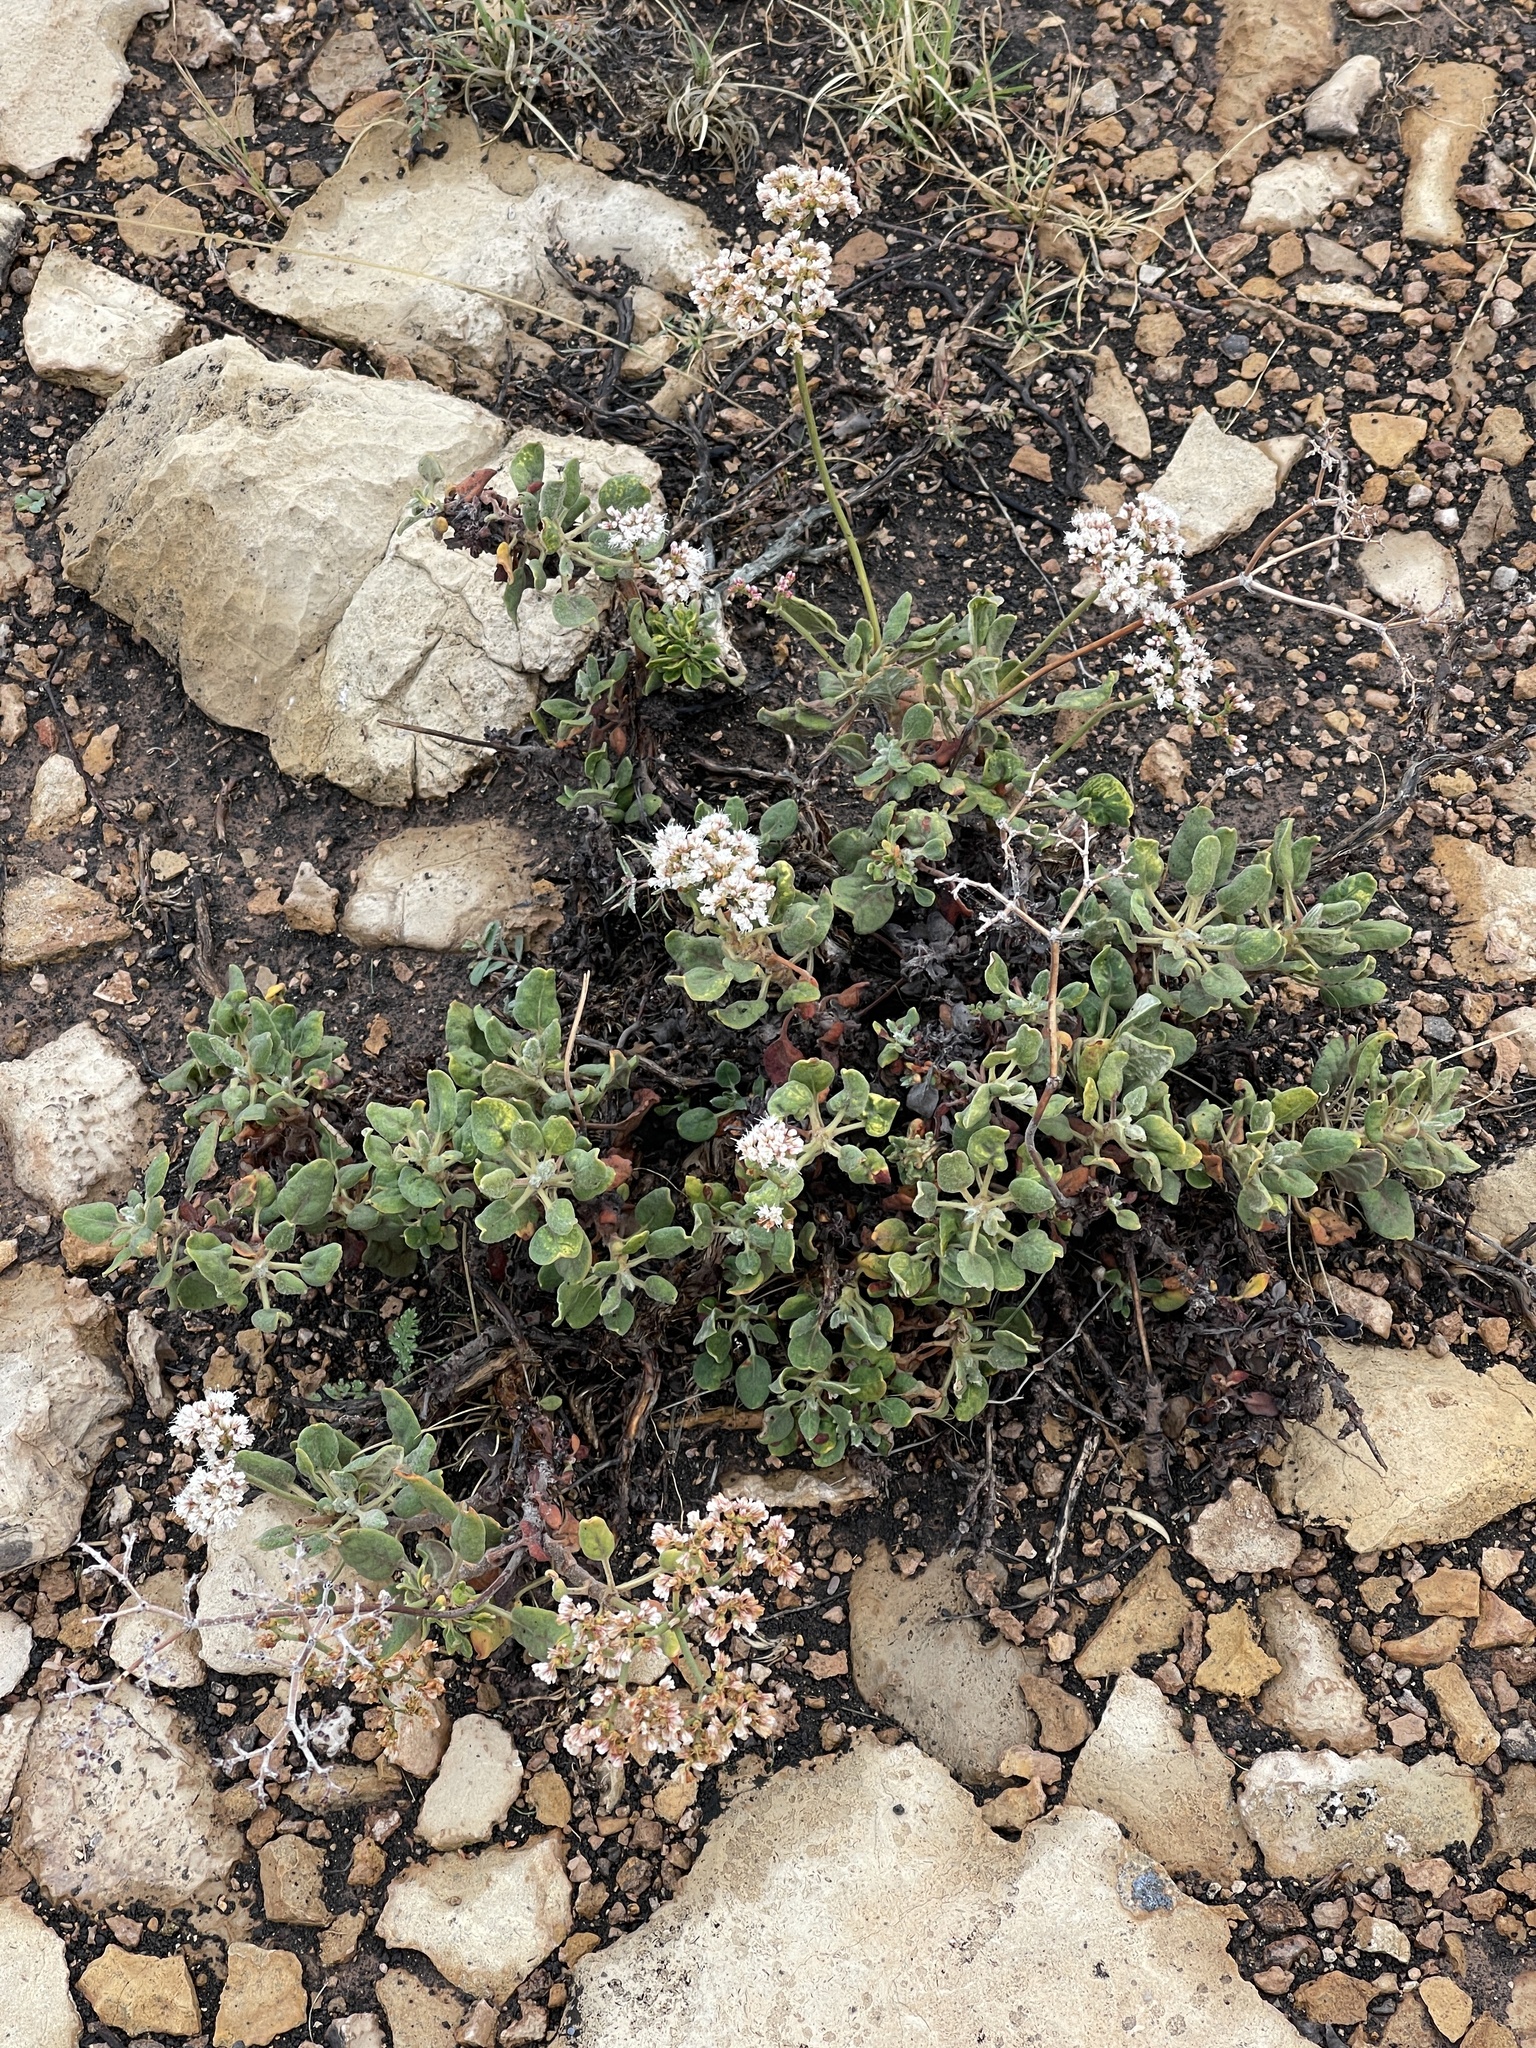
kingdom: Plantae
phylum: Tracheophyta
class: Magnoliopsida
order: Caryophyllales
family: Polygonaceae
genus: Eriogonum
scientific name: Eriogonum corymbosum
